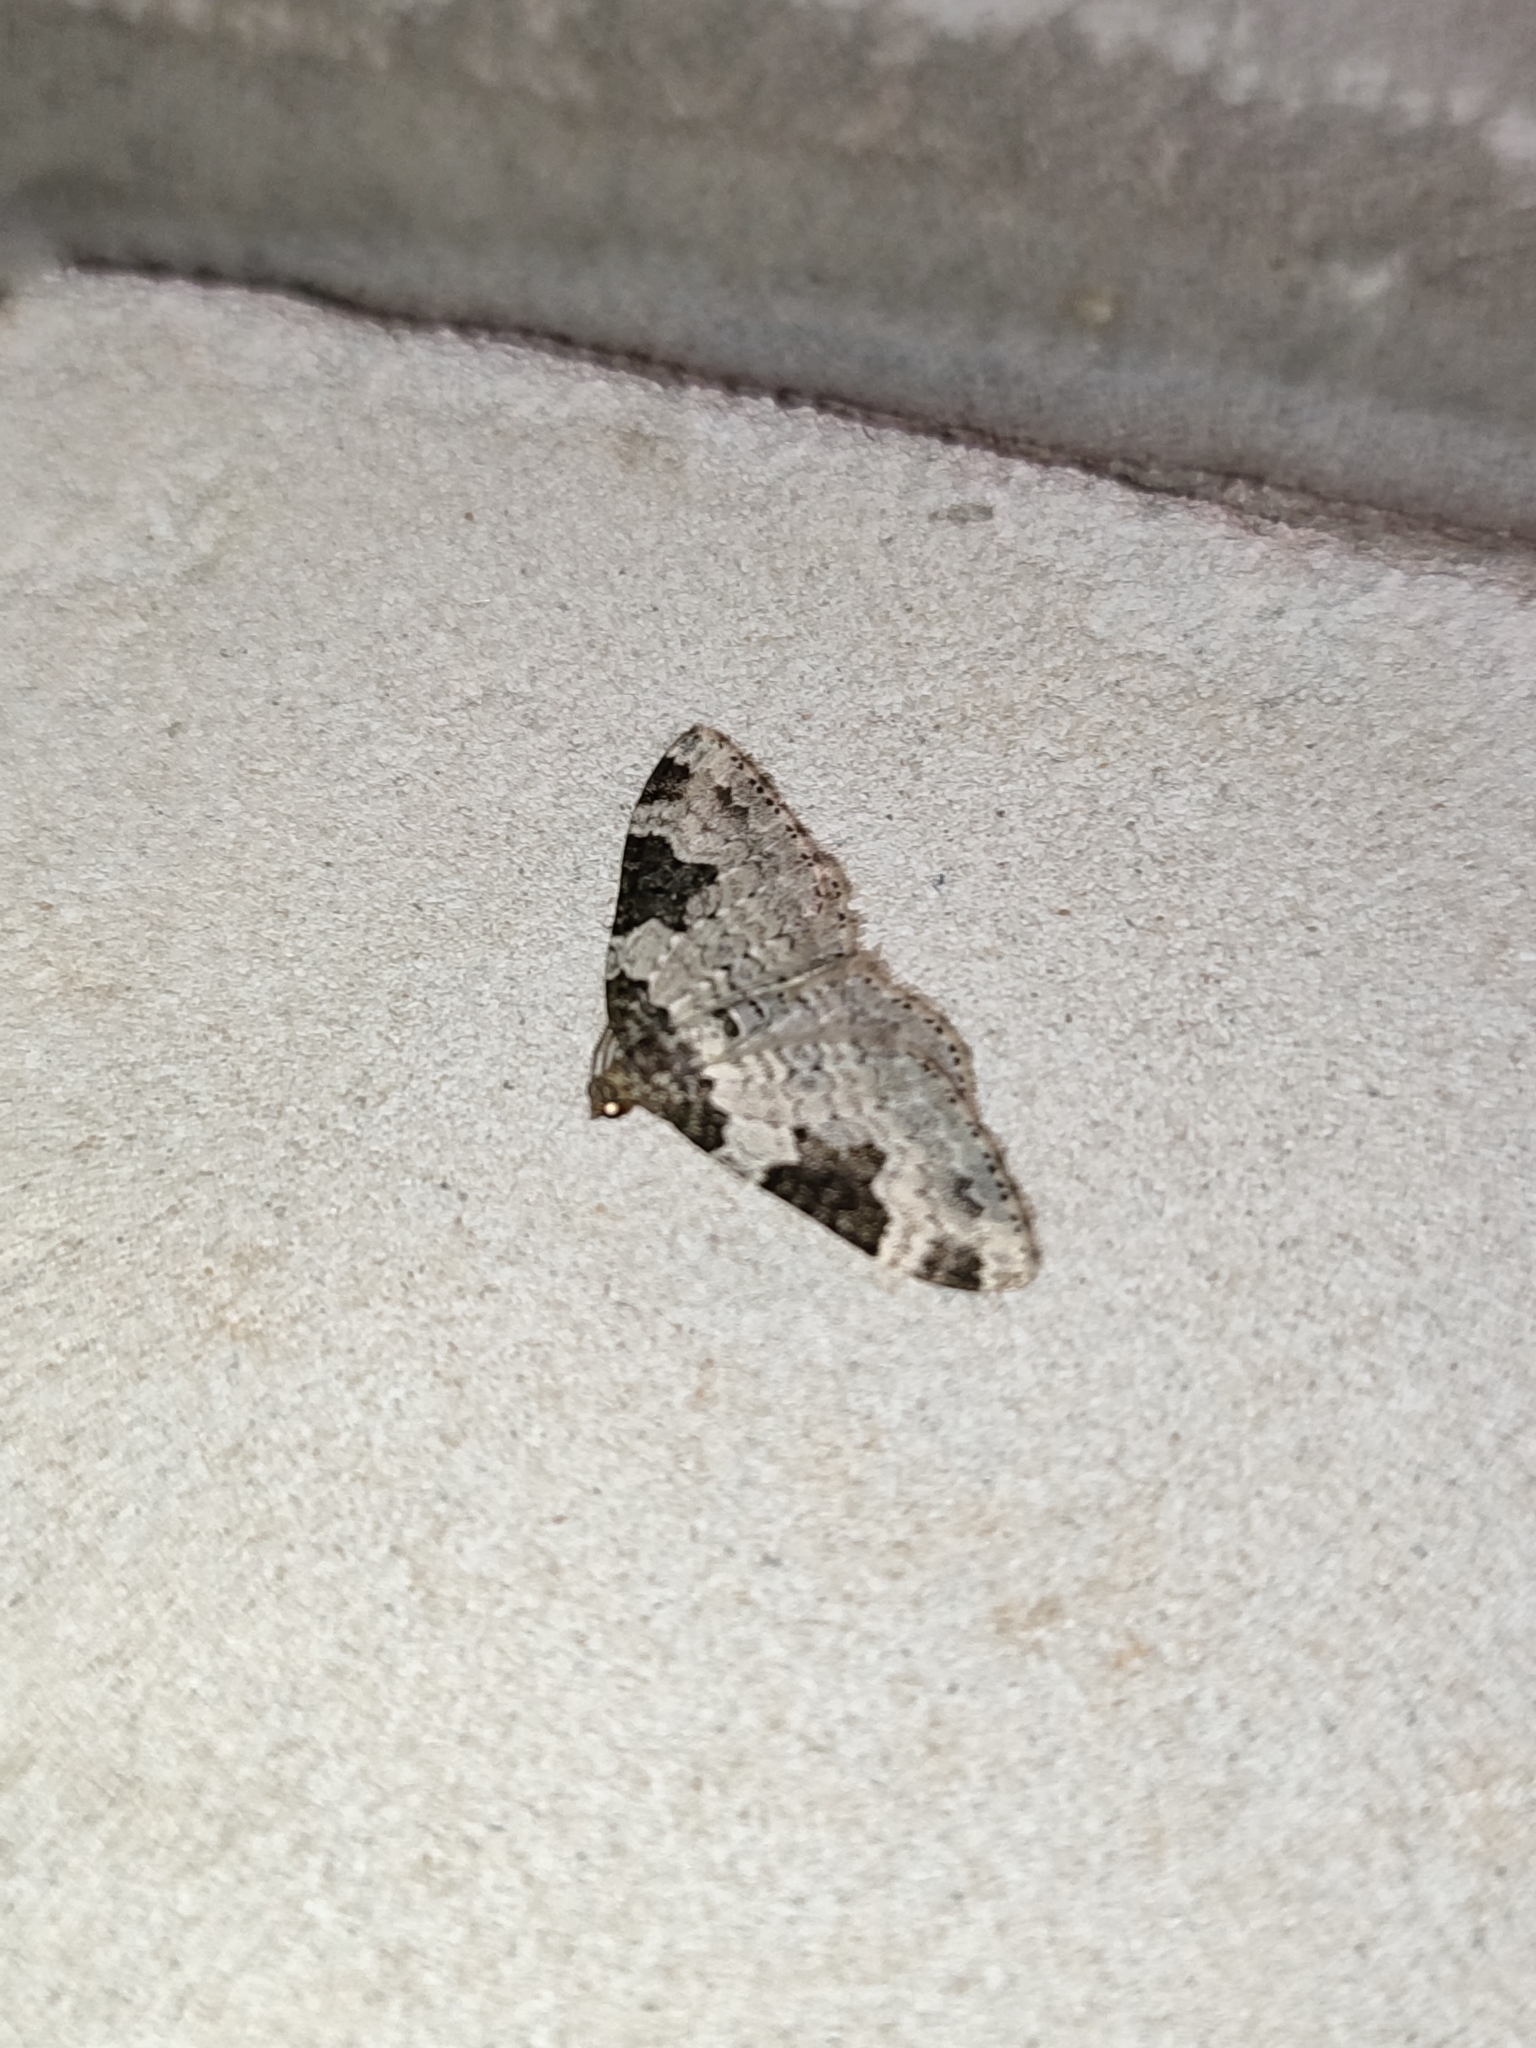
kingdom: Animalia
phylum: Arthropoda
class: Insecta
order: Lepidoptera
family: Geometridae
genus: Xanthorhoe
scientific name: Xanthorhoe fluctuata
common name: Garden carpet
